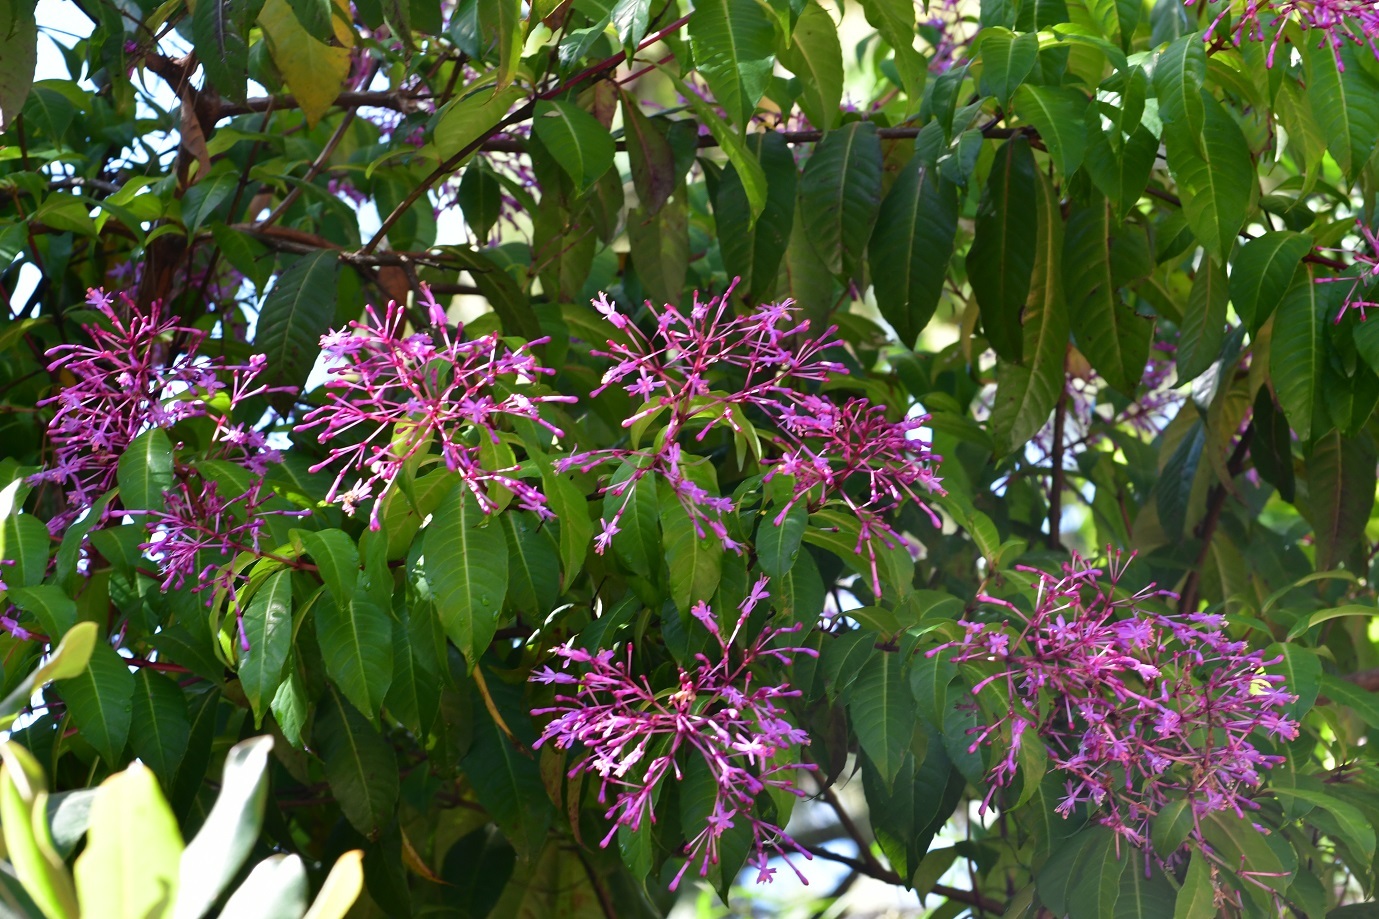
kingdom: Plantae
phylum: Tracheophyta
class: Magnoliopsida
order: Myrtales
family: Onagraceae
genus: Fuchsia
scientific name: Fuchsia paniculata
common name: Shrubby fuchsia
